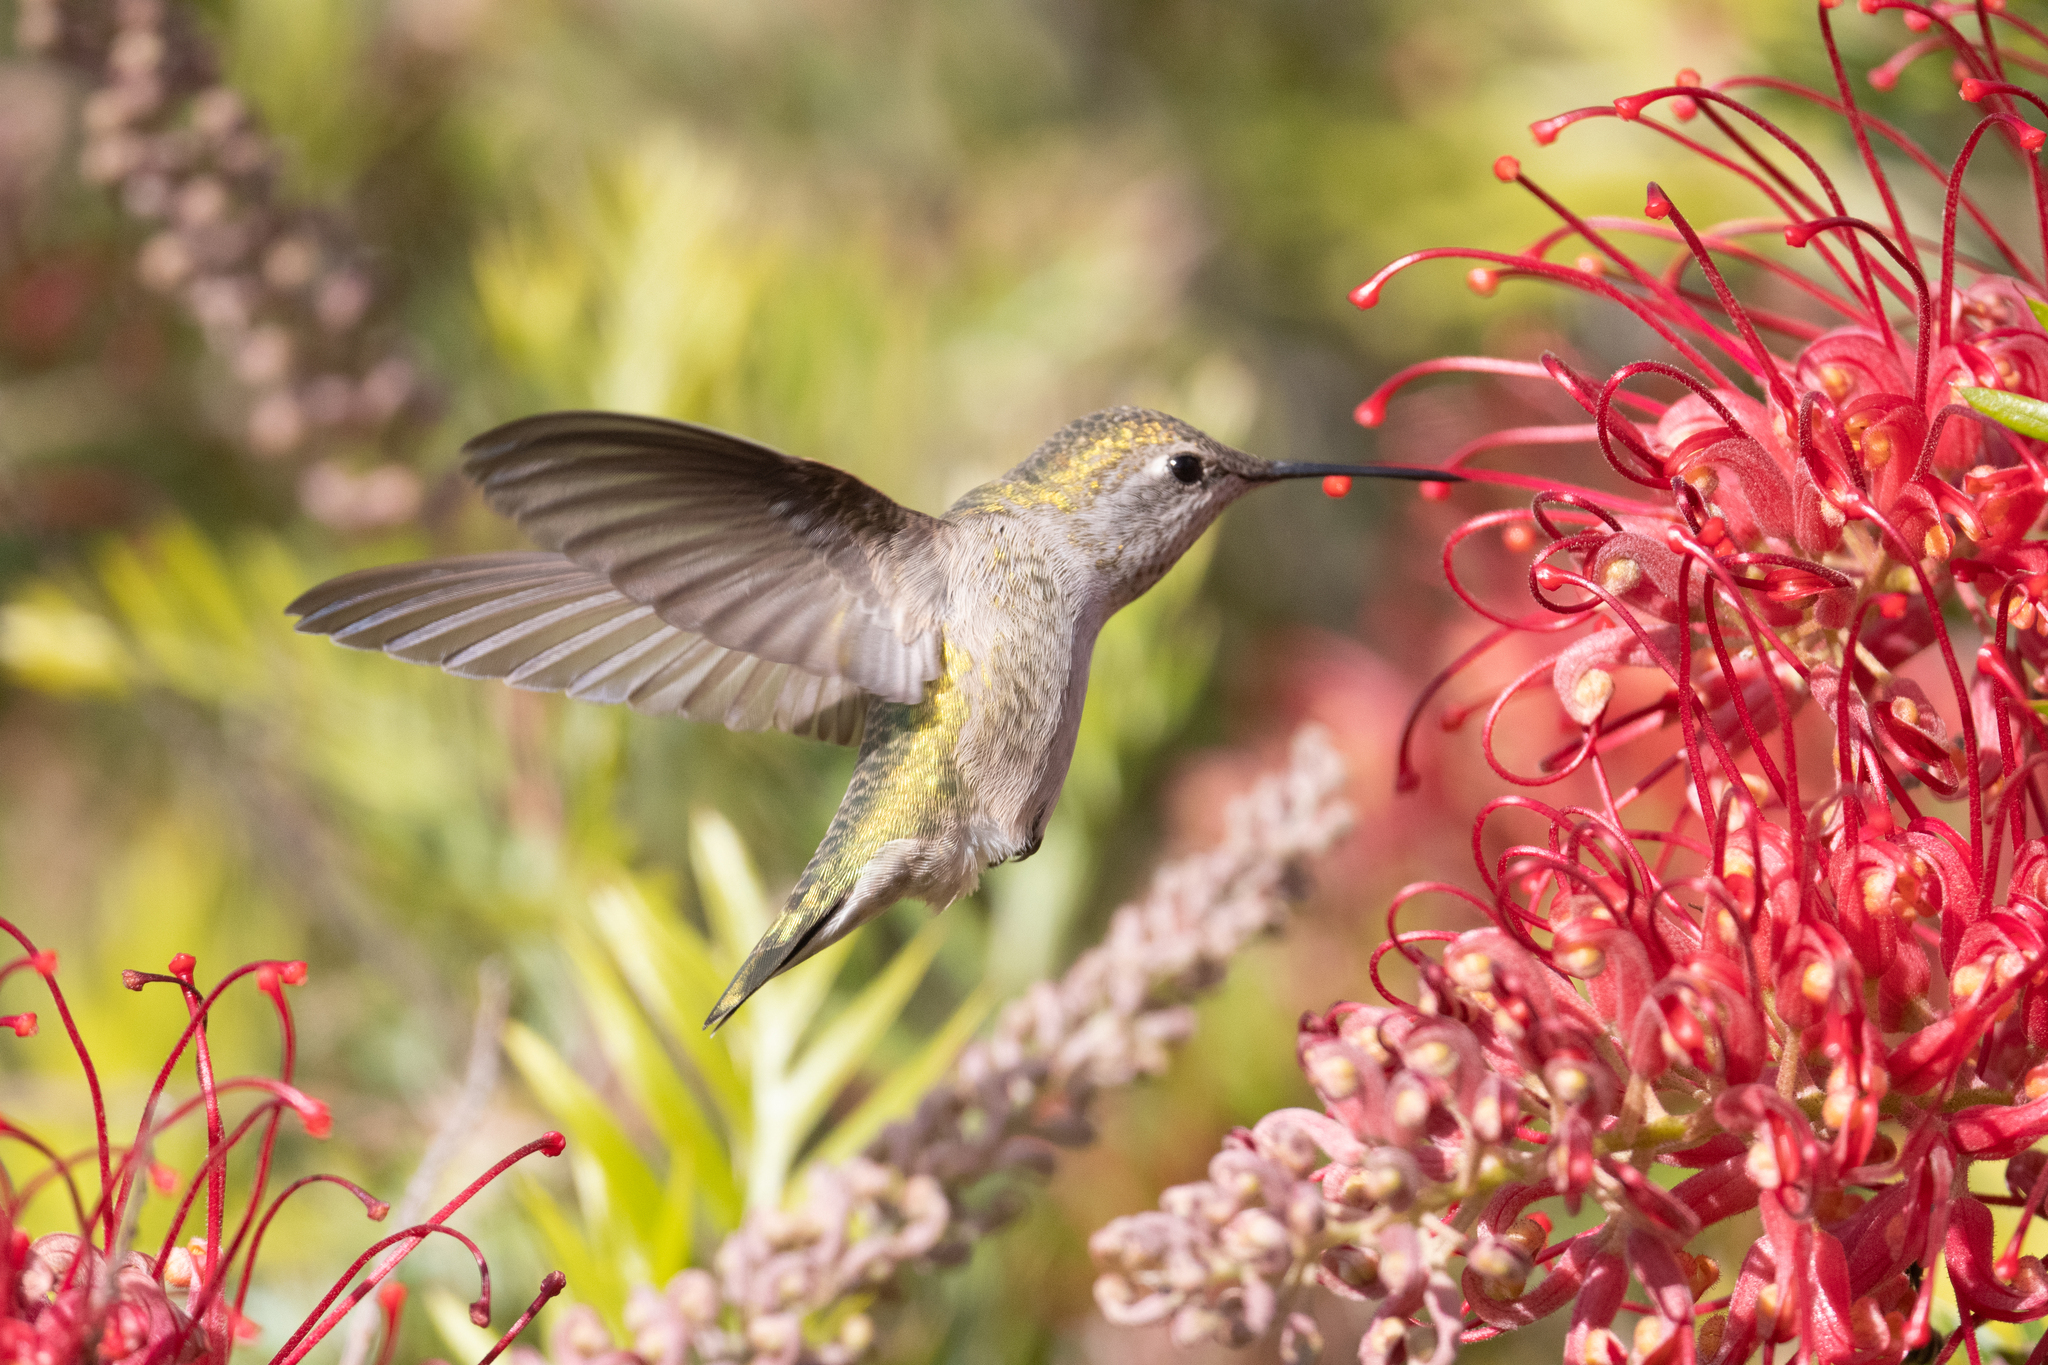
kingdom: Animalia
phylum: Chordata
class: Aves
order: Apodiformes
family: Trochilidae
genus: Calypte
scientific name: Calypte anna
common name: Anna's hummingbird
